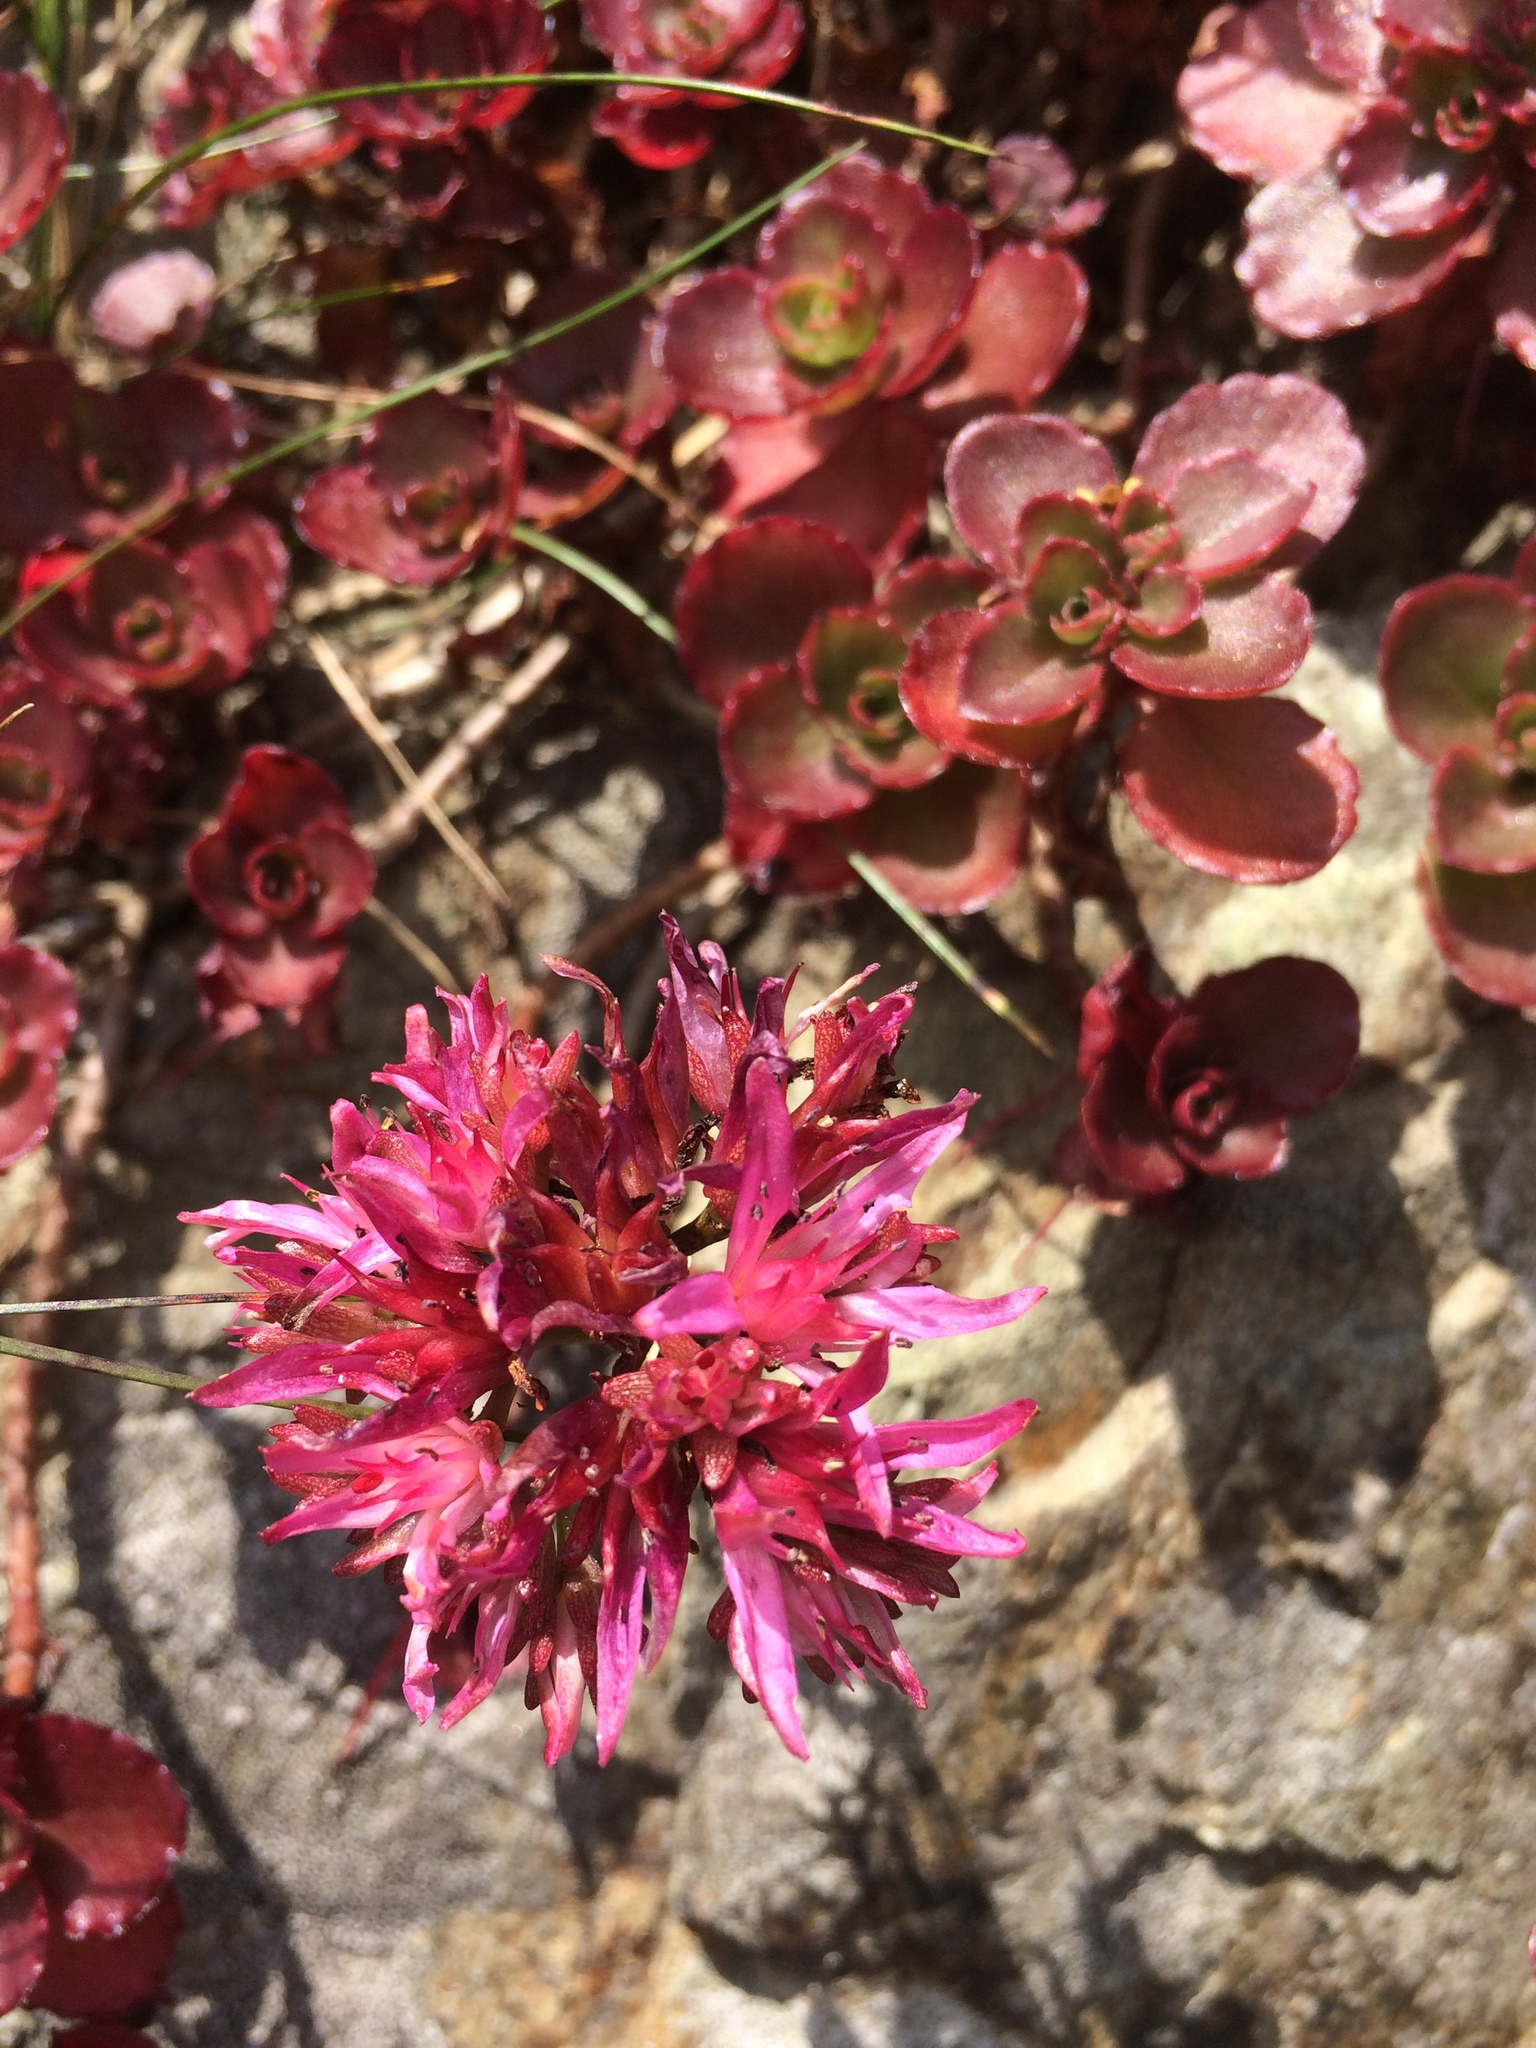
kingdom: Plantae
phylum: Tracheophyta
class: Magnoliopsida
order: Saxifragales
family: Crassulaceae
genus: Phedimus
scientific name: Phedimus spurius
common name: Caucasian stonecrop
